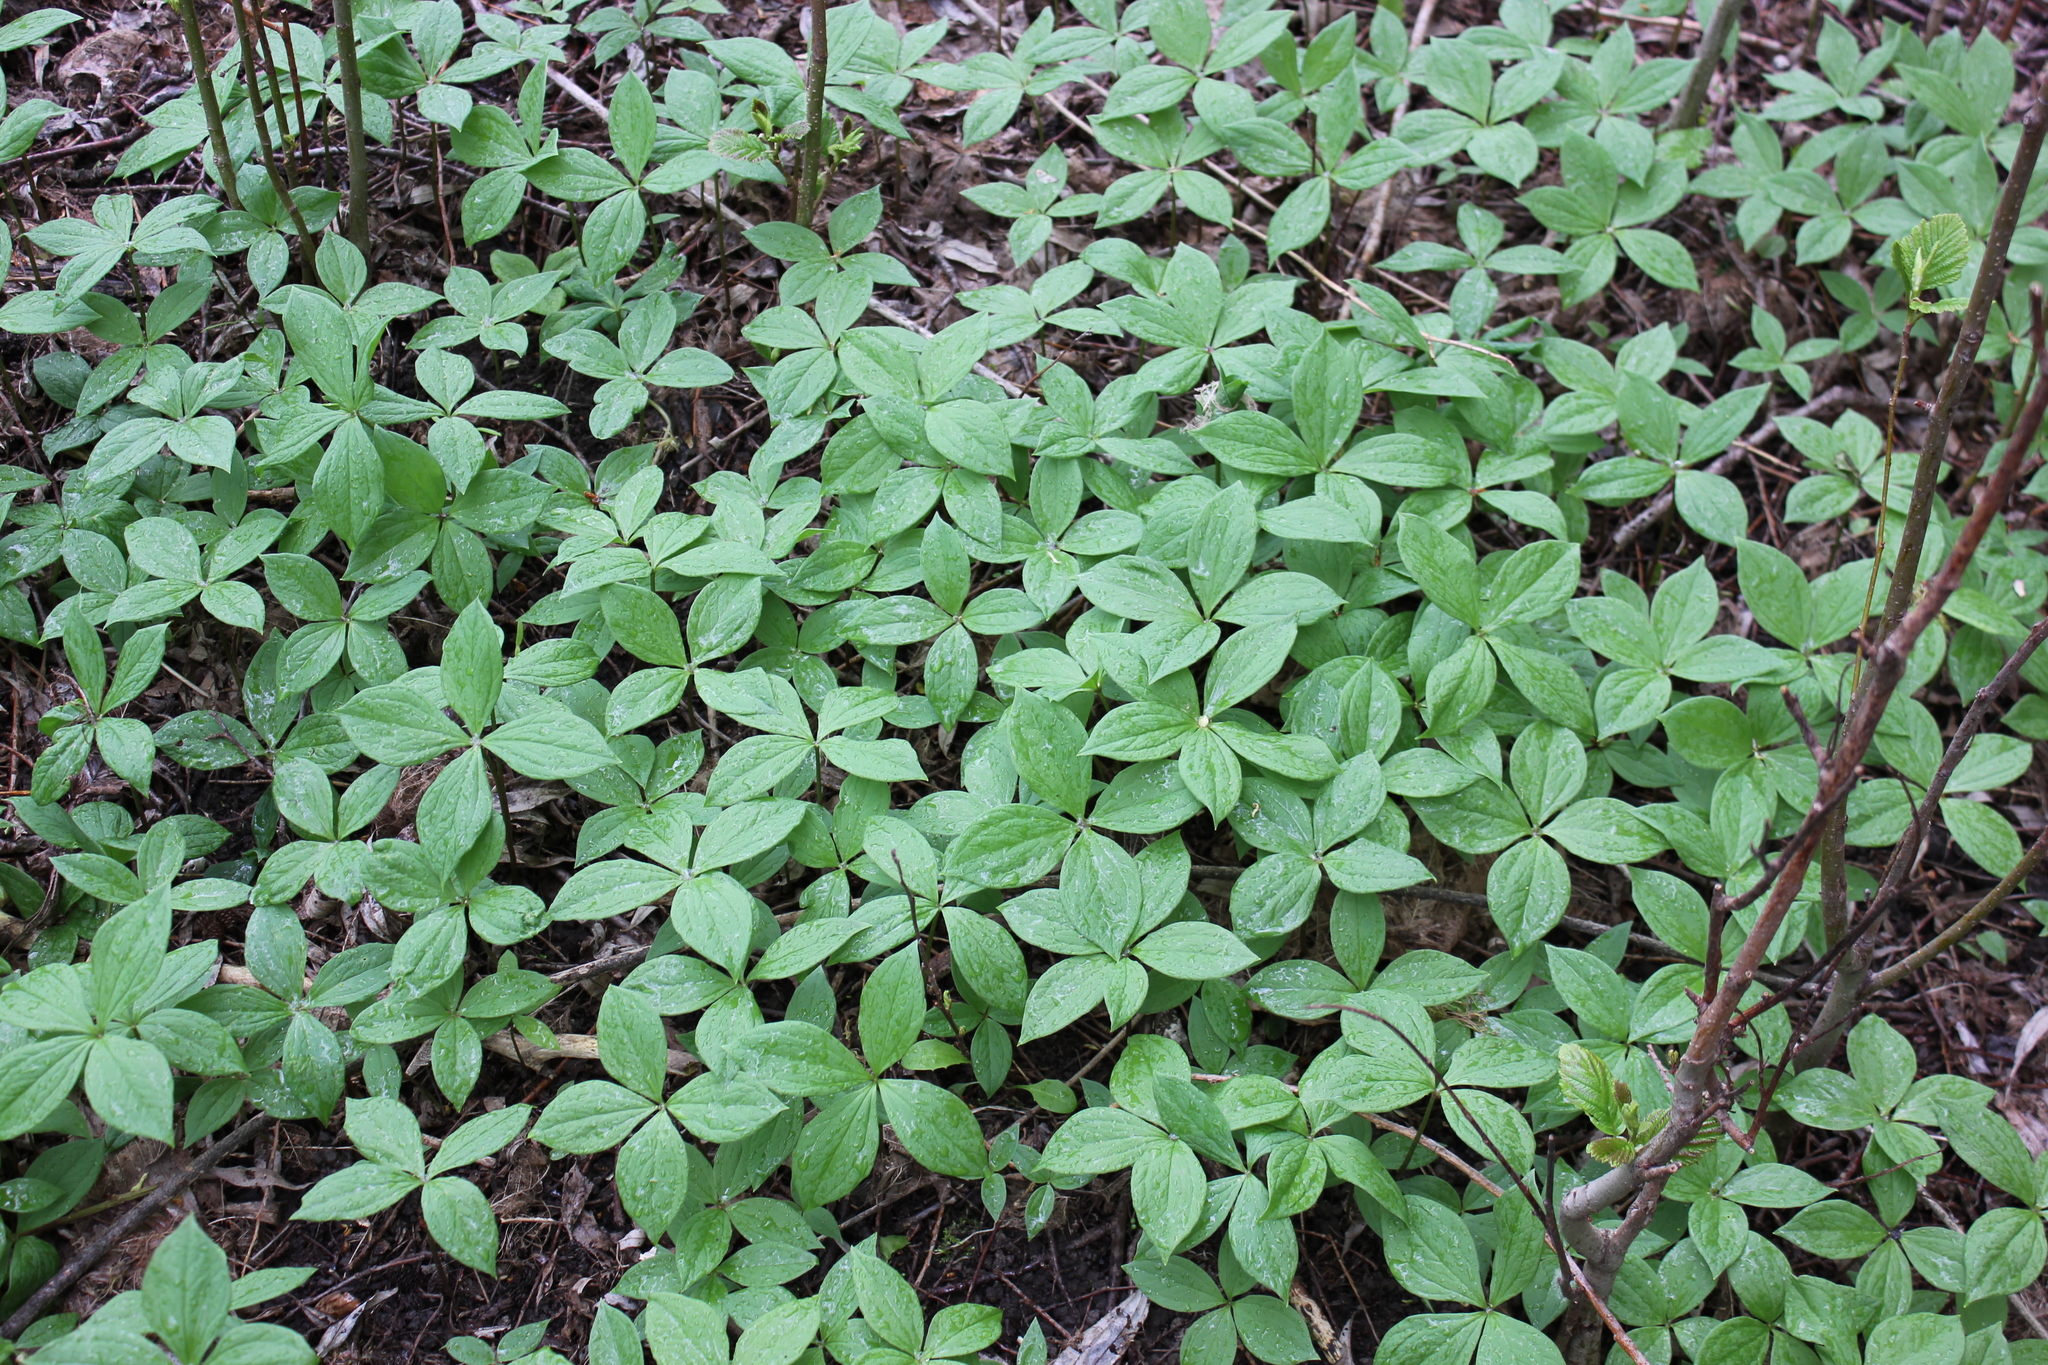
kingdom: Plantae
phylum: Tracheophyta
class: Liliopsida
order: Liliales
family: Melanthiaceae
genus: Paris
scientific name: Paris quadrifolia
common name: Herb-paris
